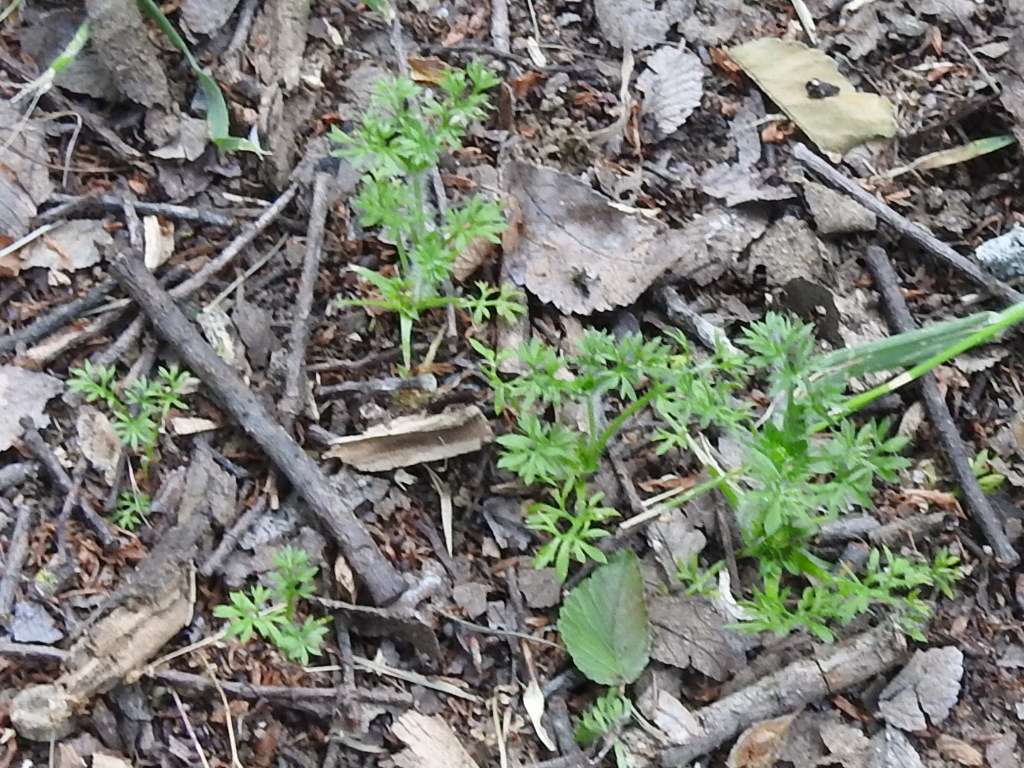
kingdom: Plantae
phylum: Tracheophyta
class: Magnoliopsida
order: Asterales
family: Asteraceae
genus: Soliva
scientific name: Soliva sessilis
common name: Field burrweed
